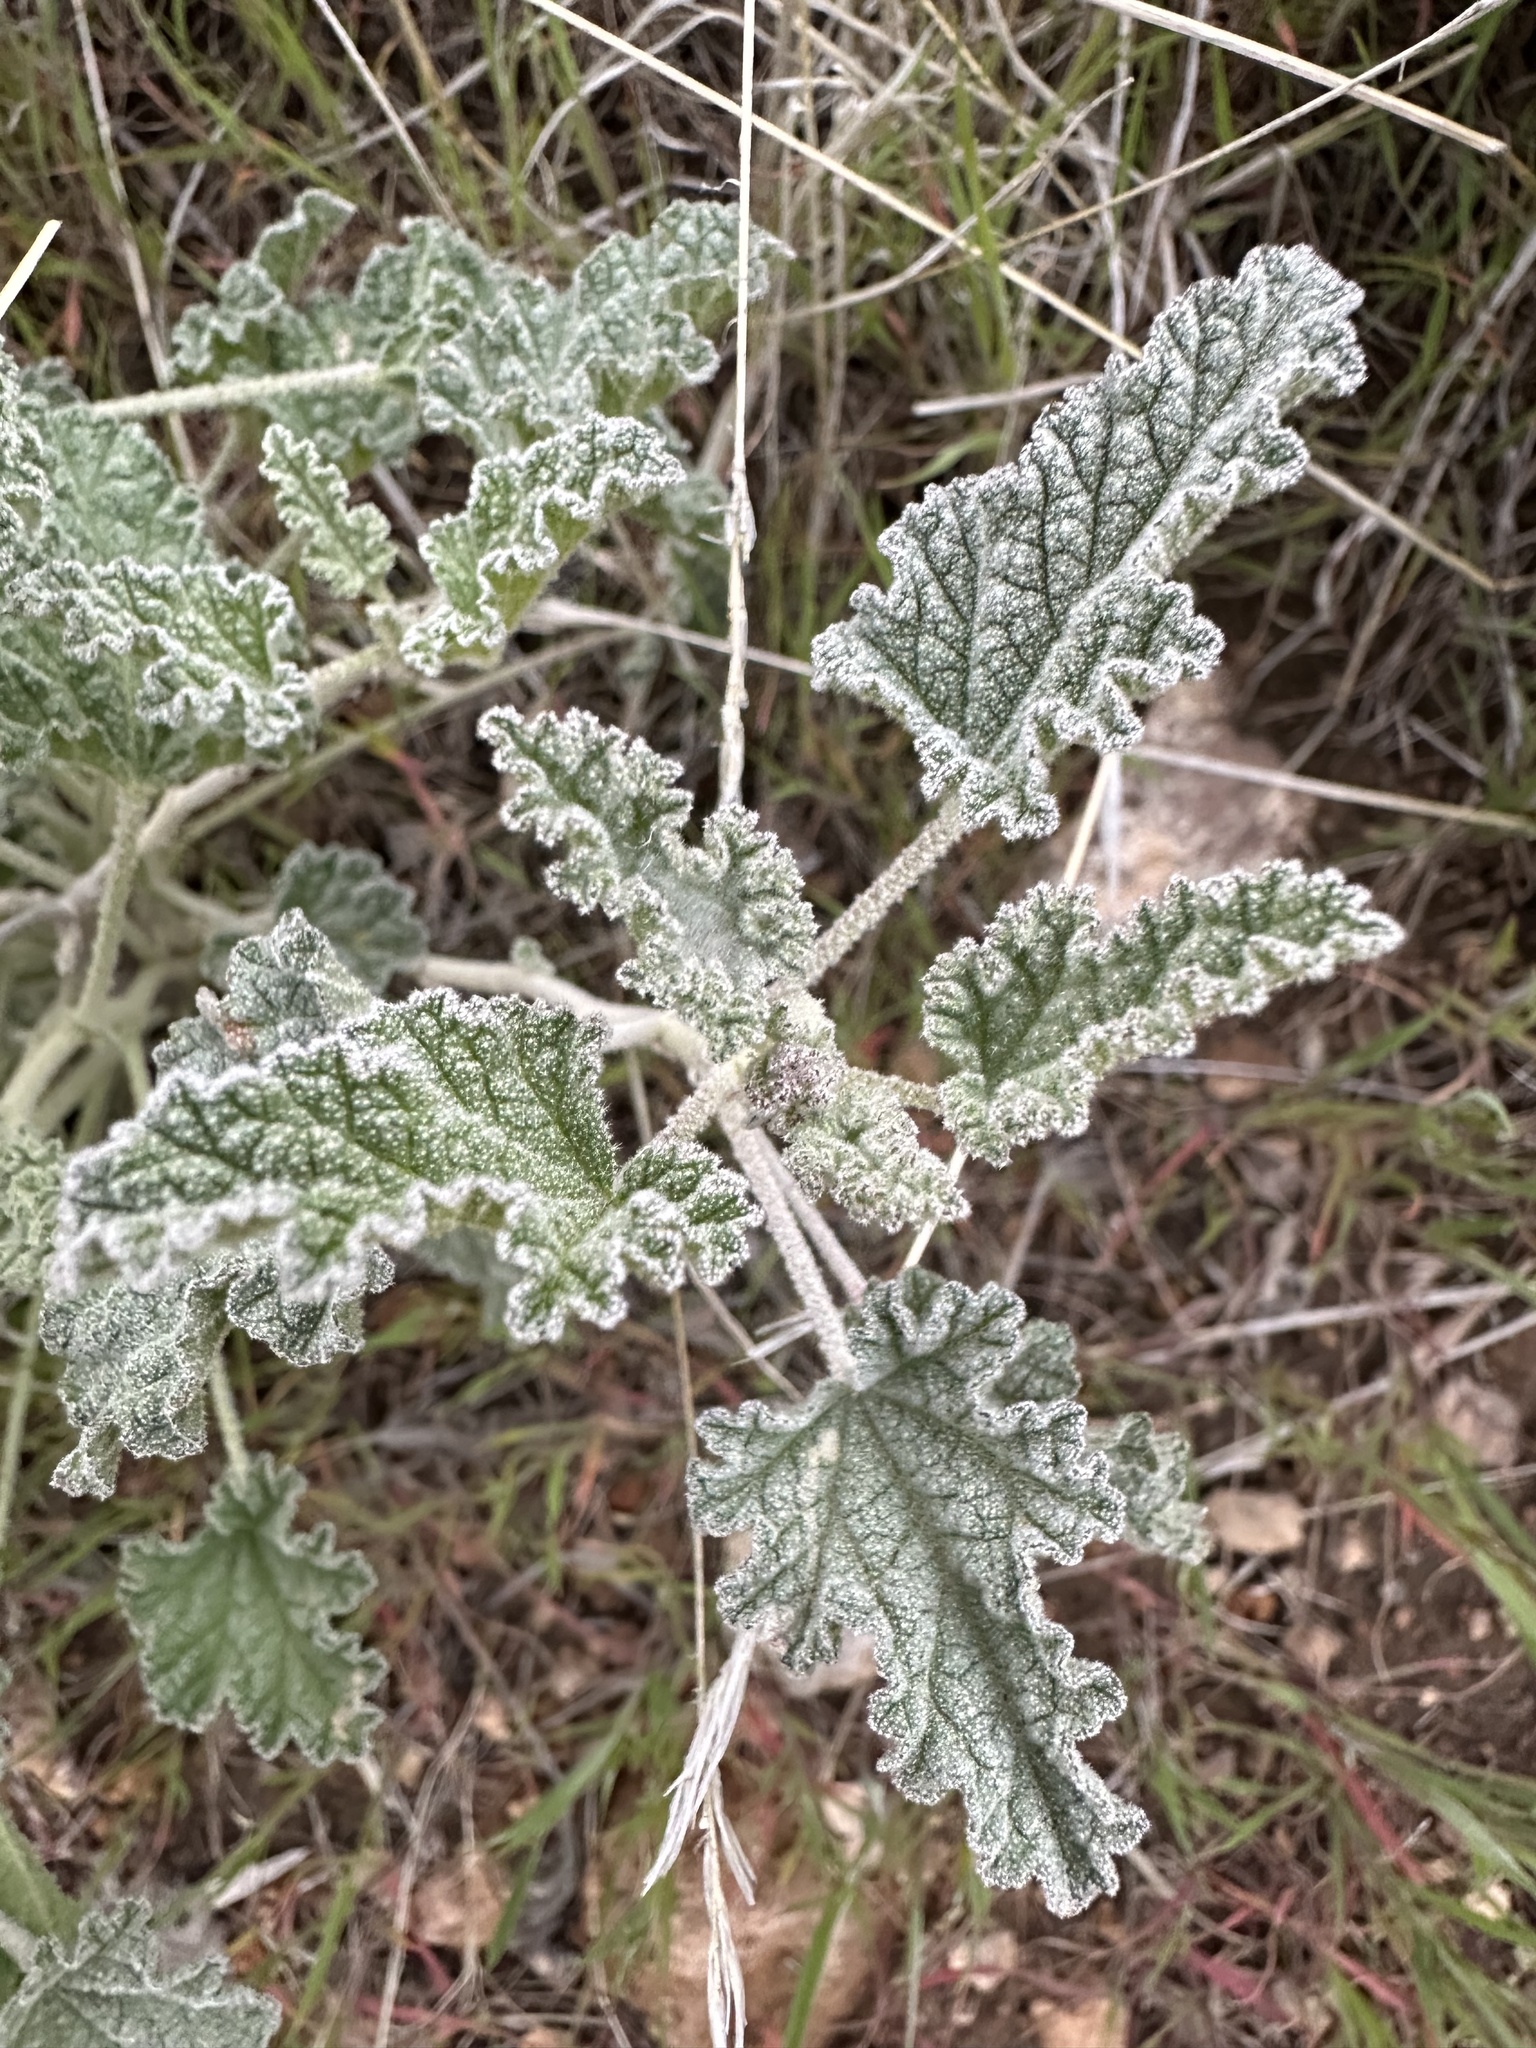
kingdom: Plantae
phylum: Tracheophyta
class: Magnoliopsida
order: Malvales
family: Malvaceae
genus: Sphaeralcea
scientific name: Sphaeralcea ambigua
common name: Apricot globe-mallow
